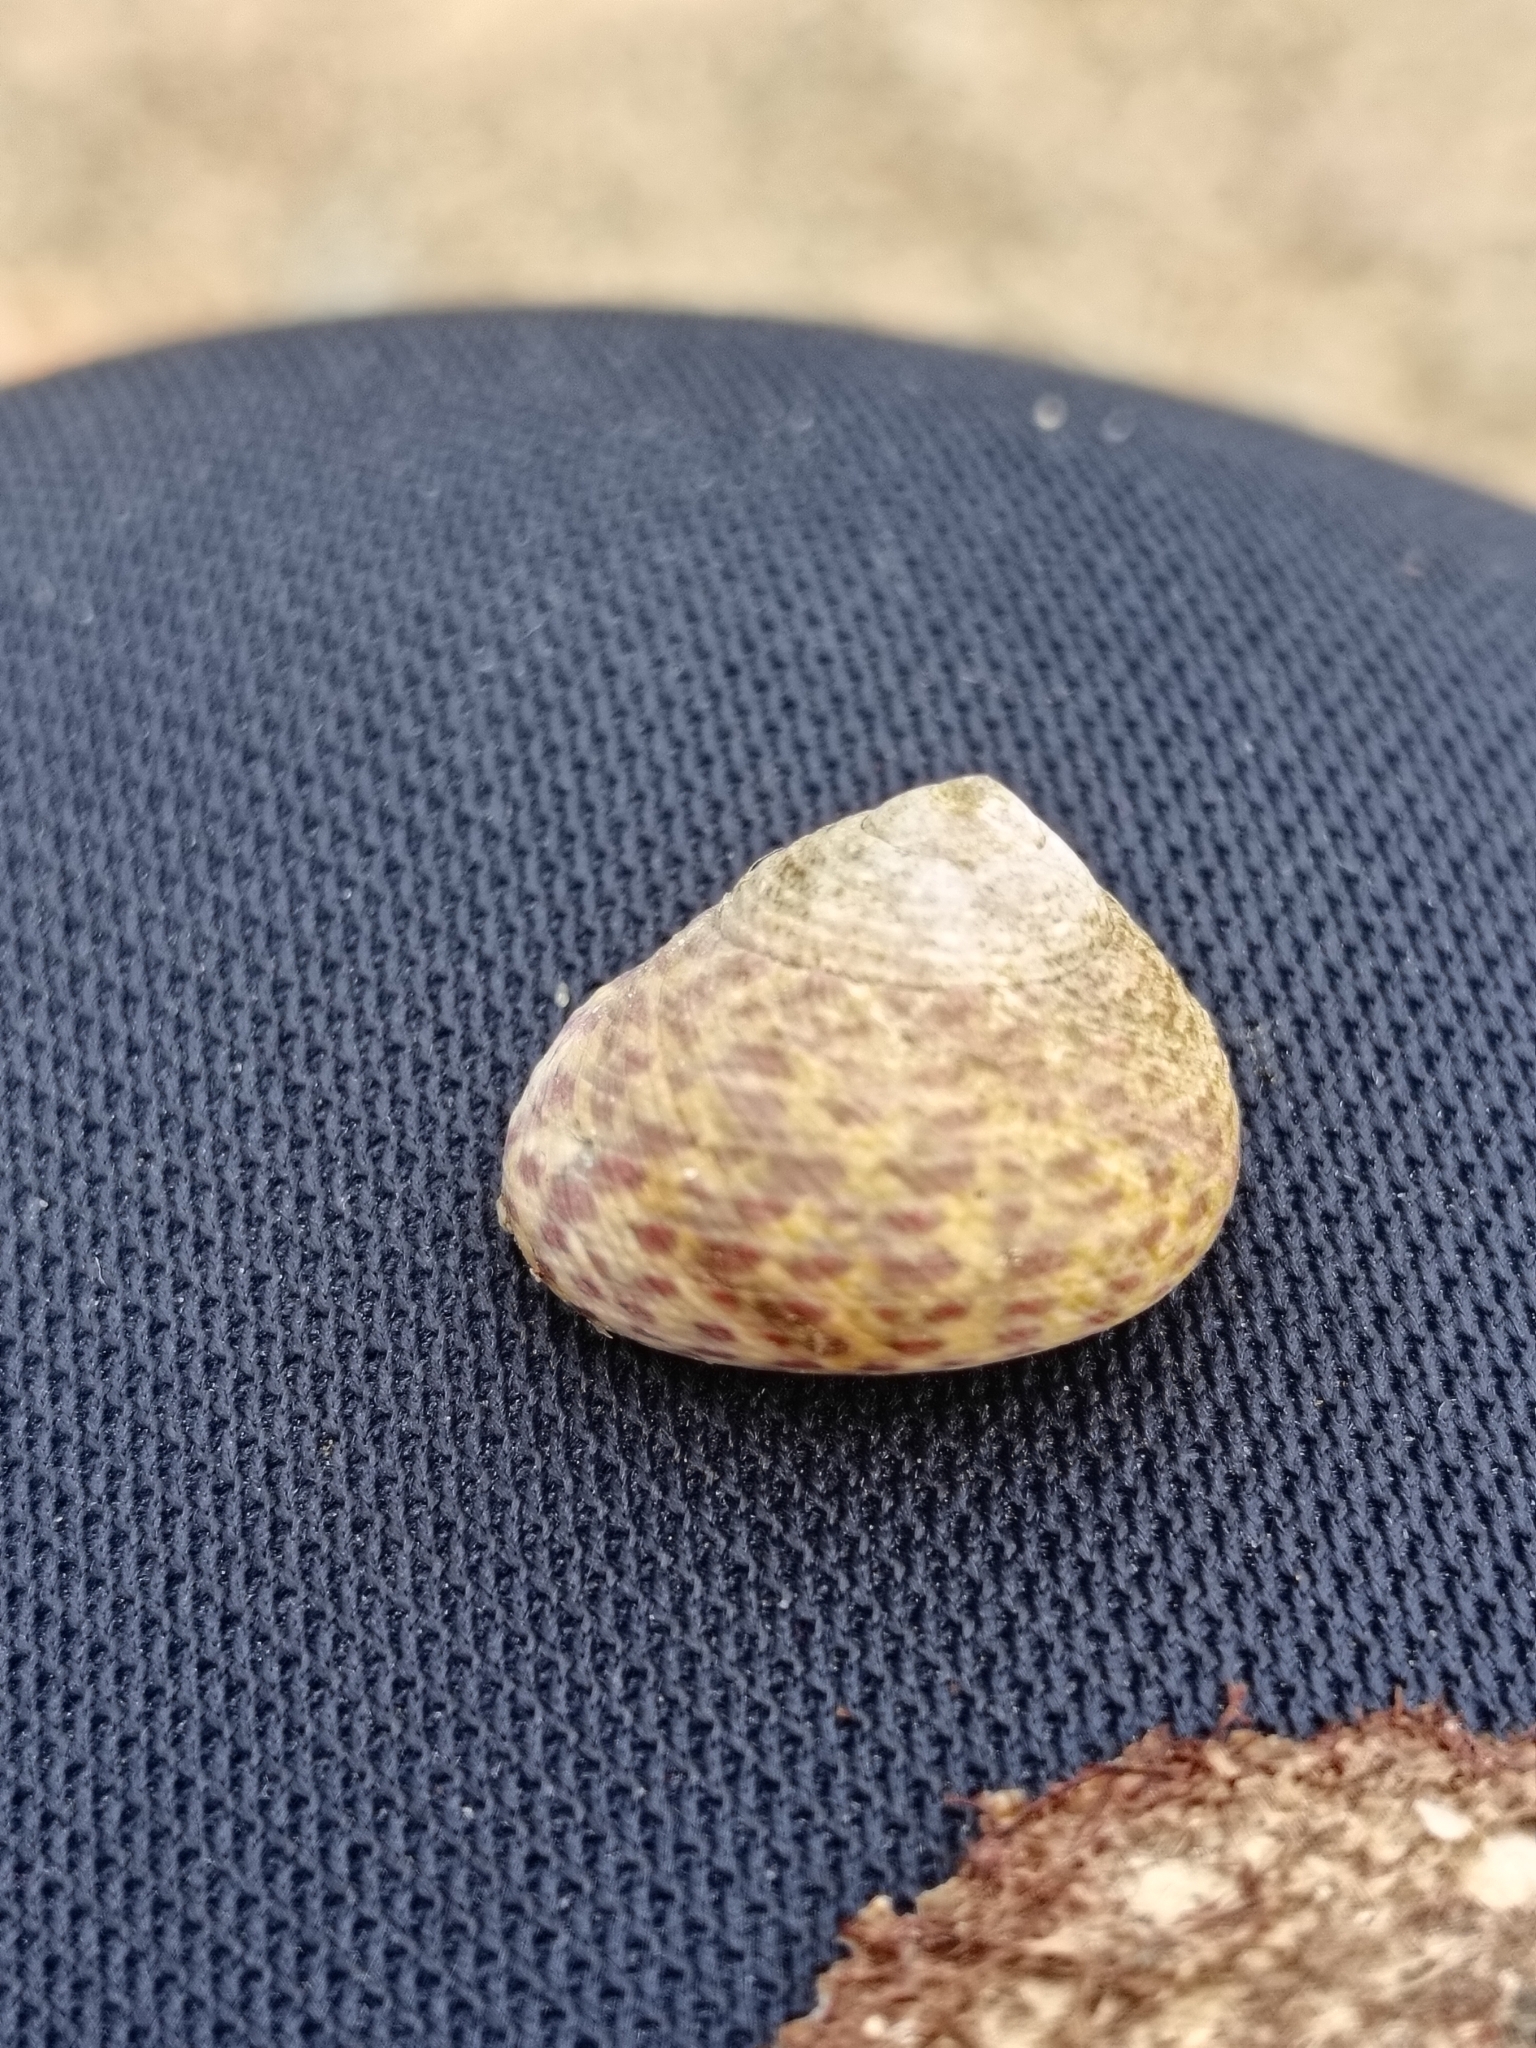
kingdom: Animalia
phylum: Mollusca
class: Gastropoda
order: Trochida
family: Trochidae
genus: Phorcus
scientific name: Phorcus turbinatus
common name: Turbinate monodont
